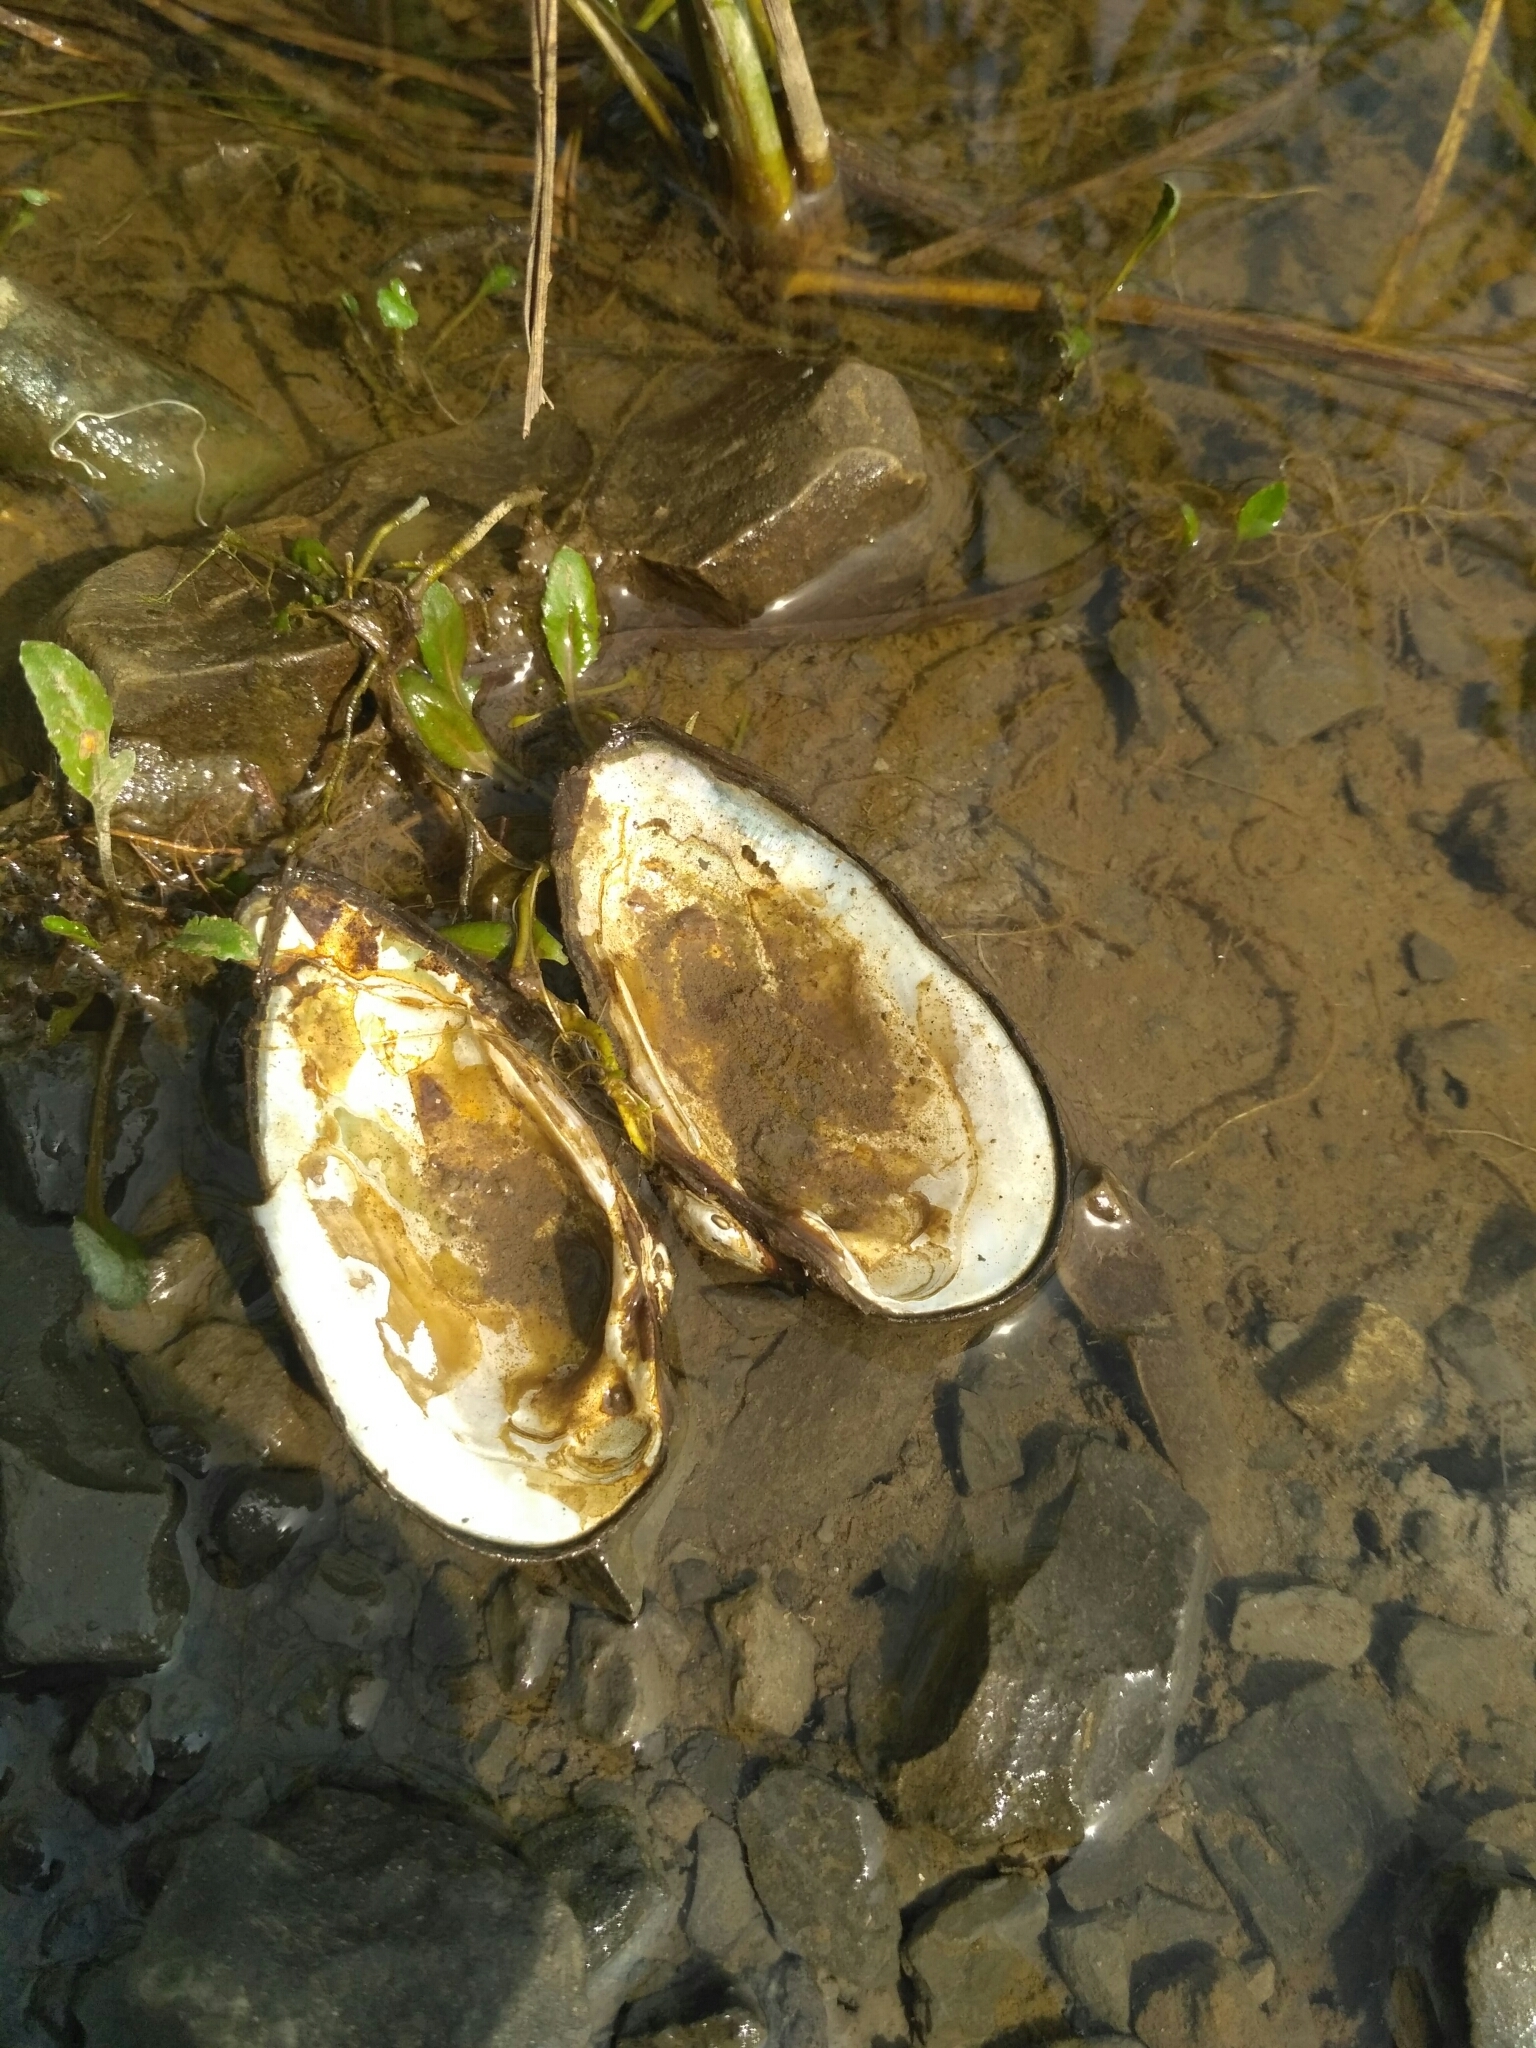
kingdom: Animalia
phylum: Mollusca
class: Bivalvia
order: Unionida
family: Unionidae
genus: Unio
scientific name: Unio crassus
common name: Thick shelled river mussel
